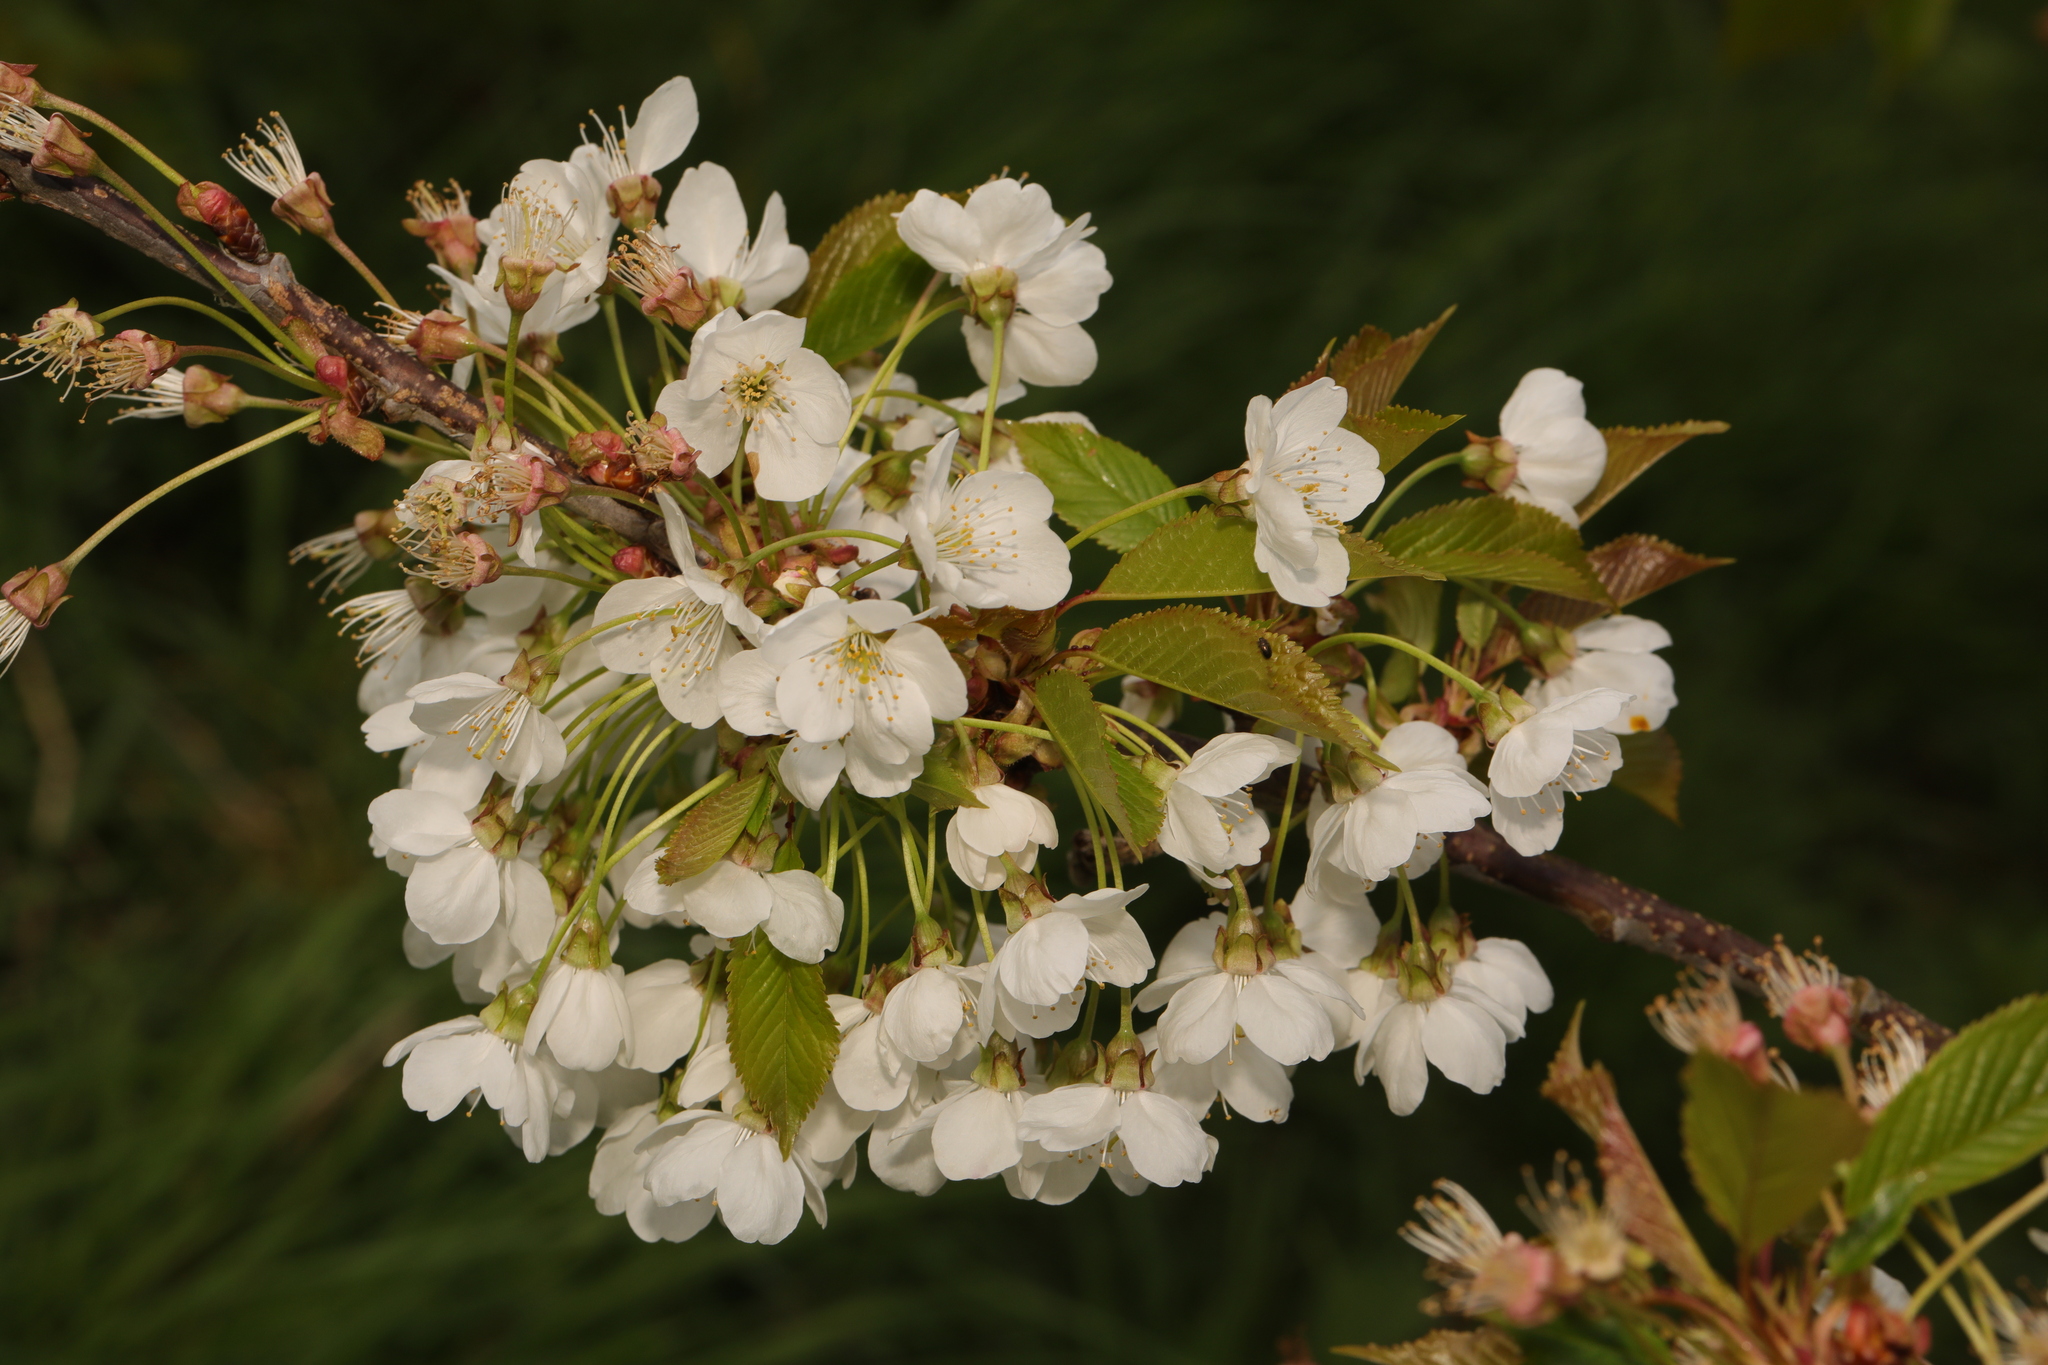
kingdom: Plantae
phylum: Tracheophyta
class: Magnoliopsida
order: Rosales
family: Rosaceae
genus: Prunus
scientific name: Prunus avium
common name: Sweet cherry
